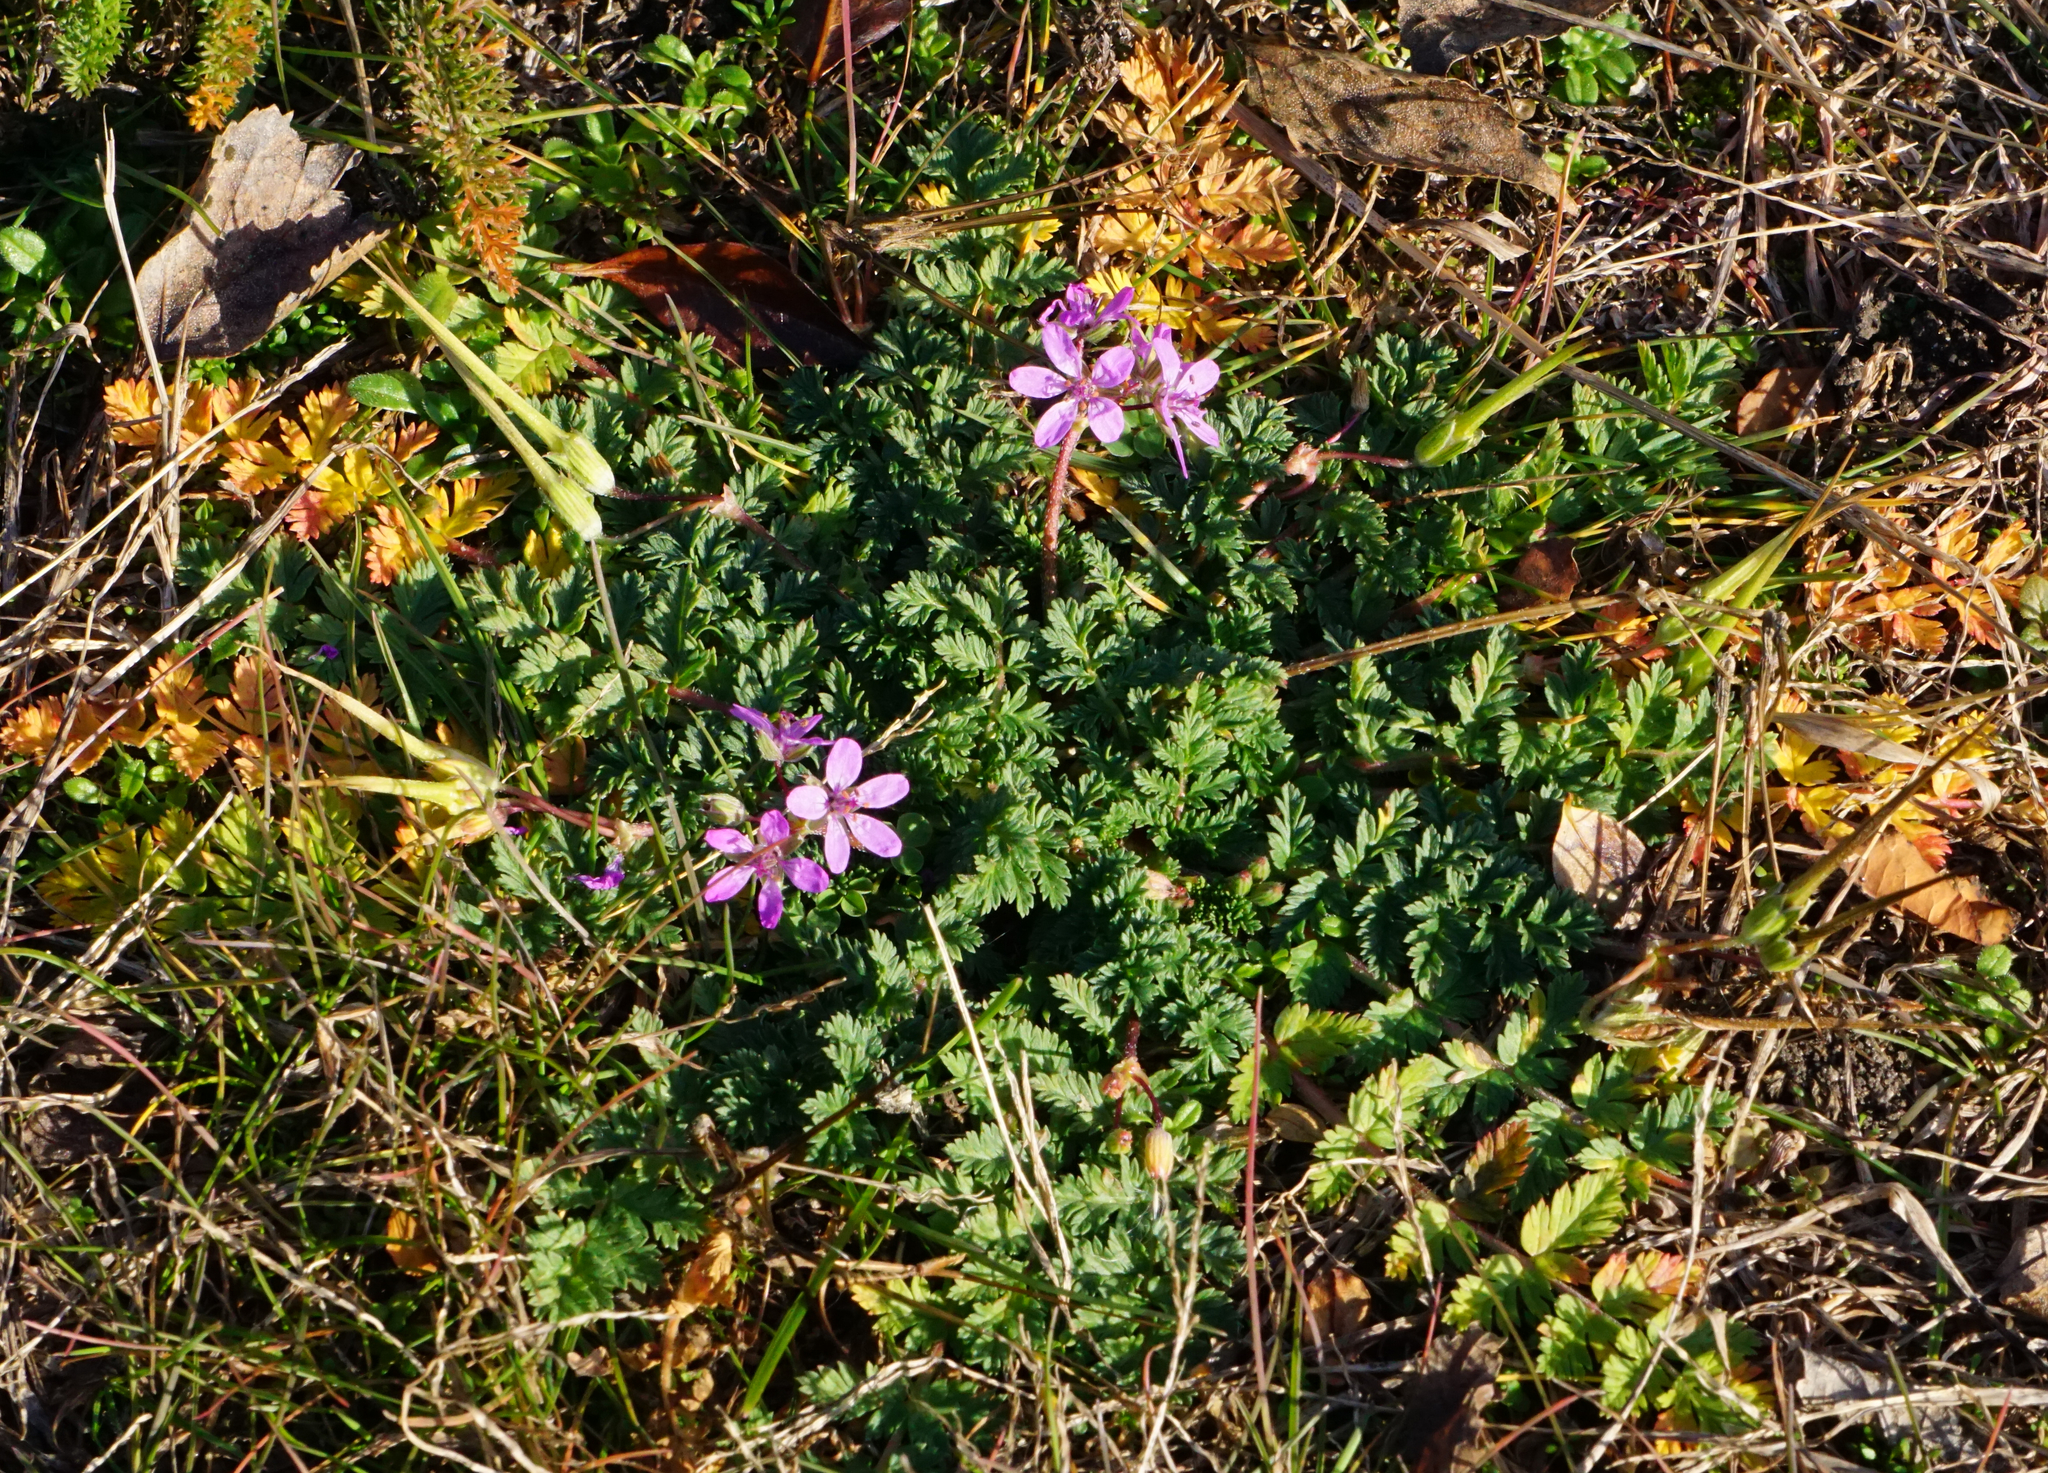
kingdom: Plantae
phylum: Tracheophyta
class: Magnoliopsida
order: Geraniales
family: Geraniaceae
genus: Erodium
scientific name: Erodium cicutarium
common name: Common stork's-bill
